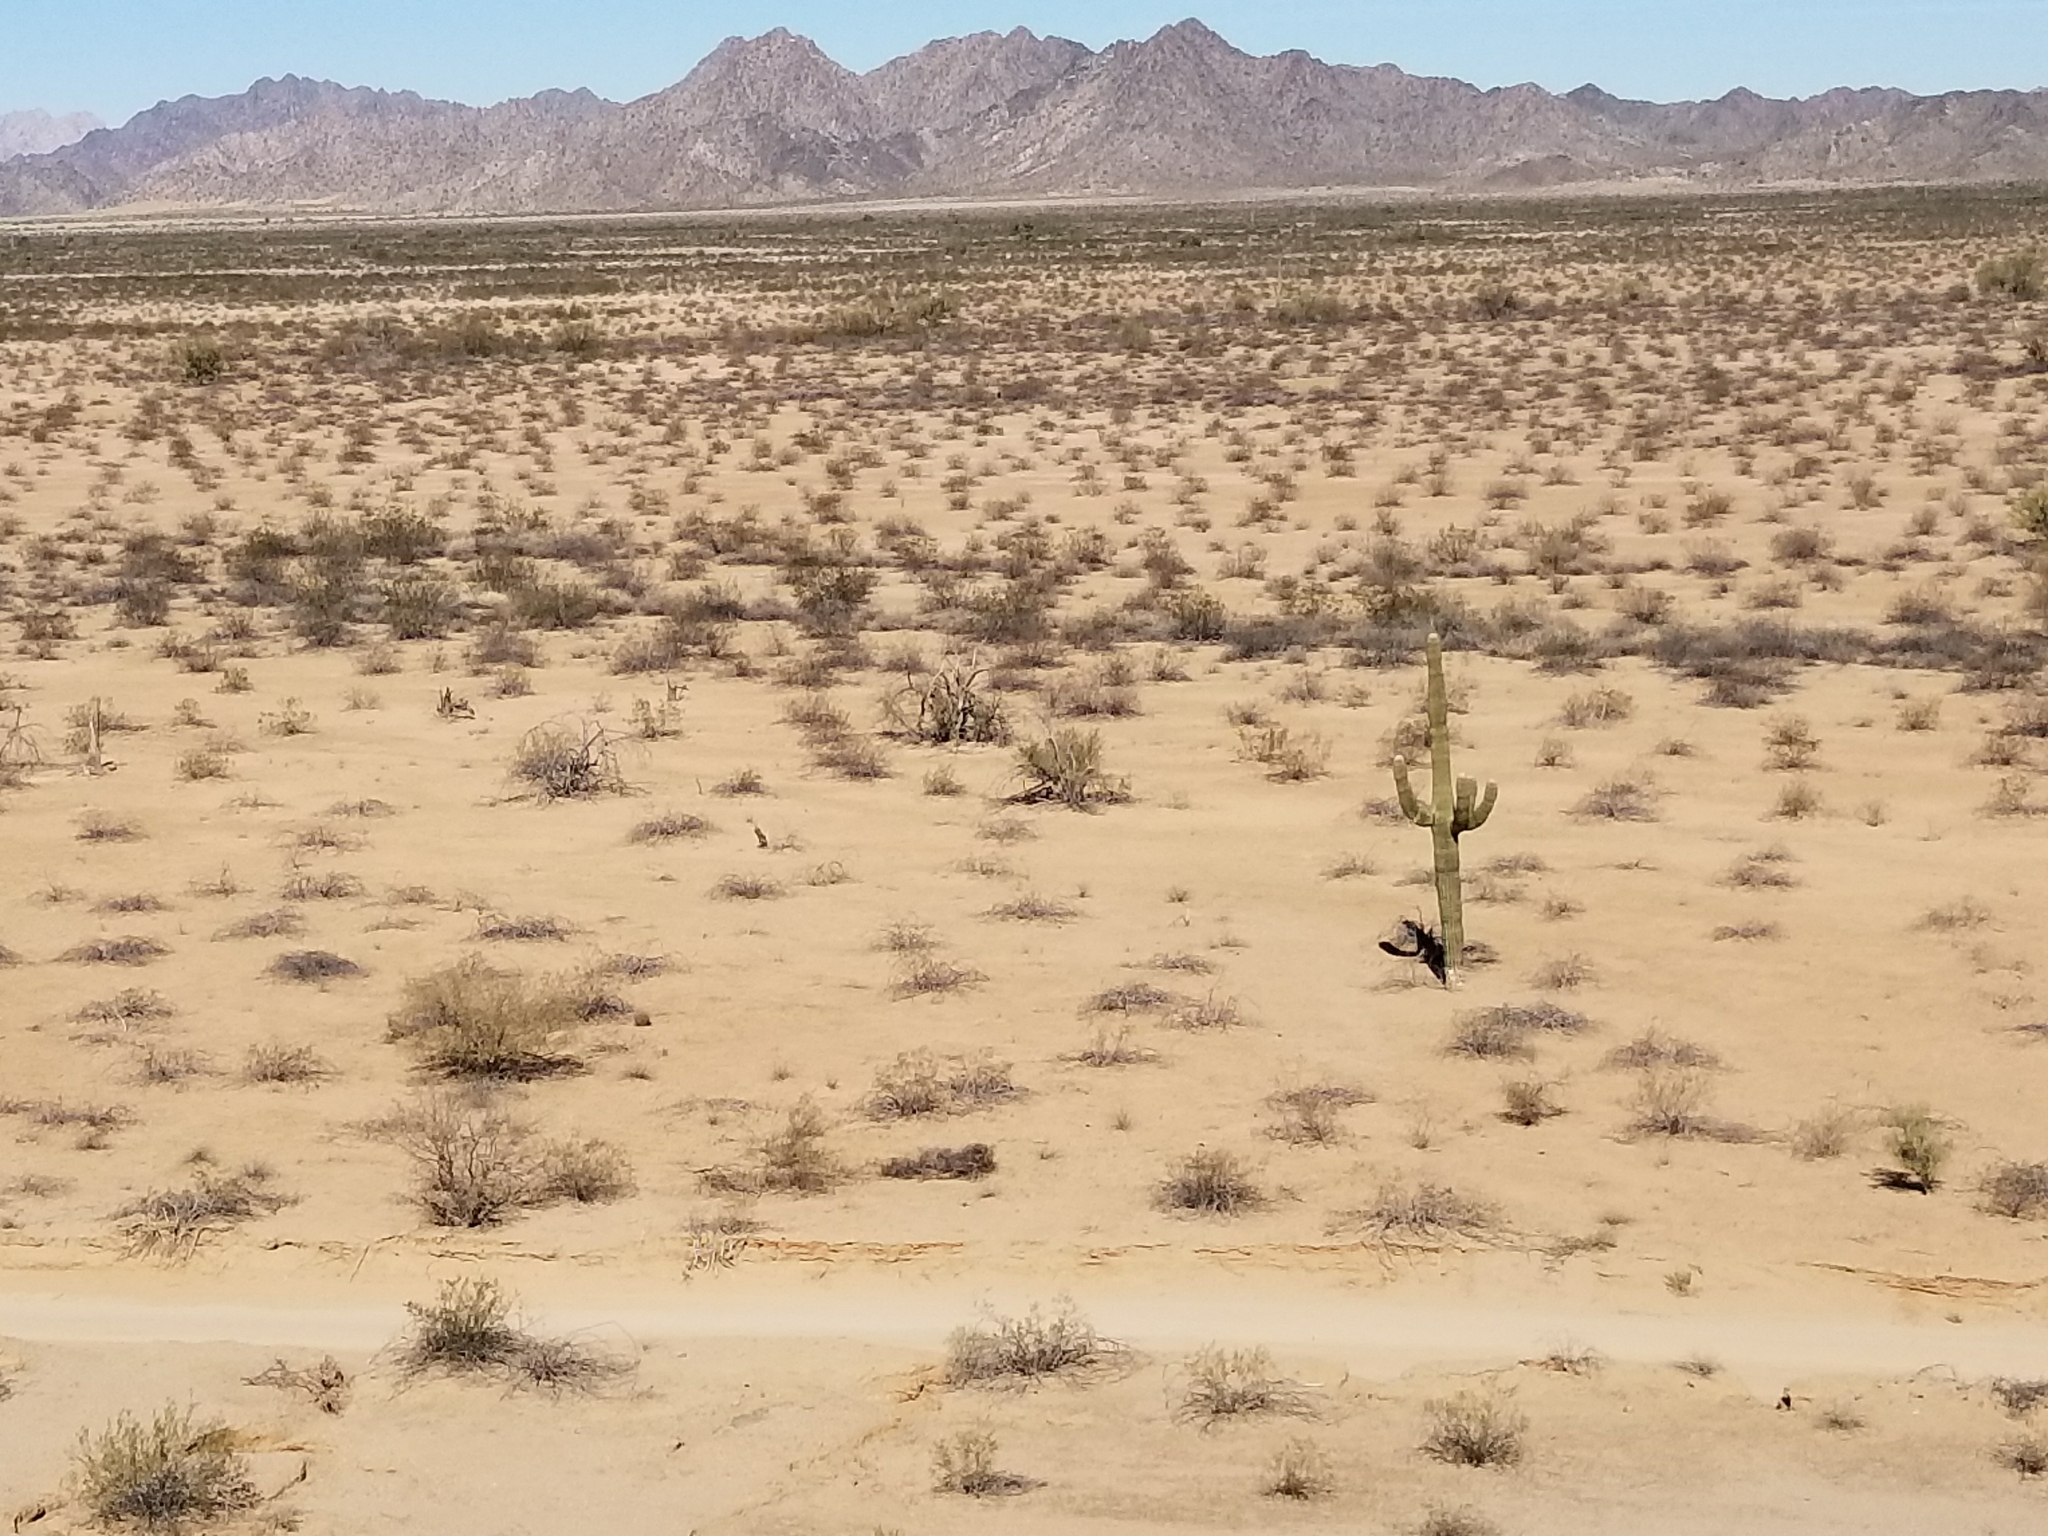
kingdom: Plantae
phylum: Tracheophyta
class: Magnoliopsida
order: Caryophyllales
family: Cactaceae
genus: Carnegiea
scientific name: Carnegiea gigantea
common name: Saguaro
